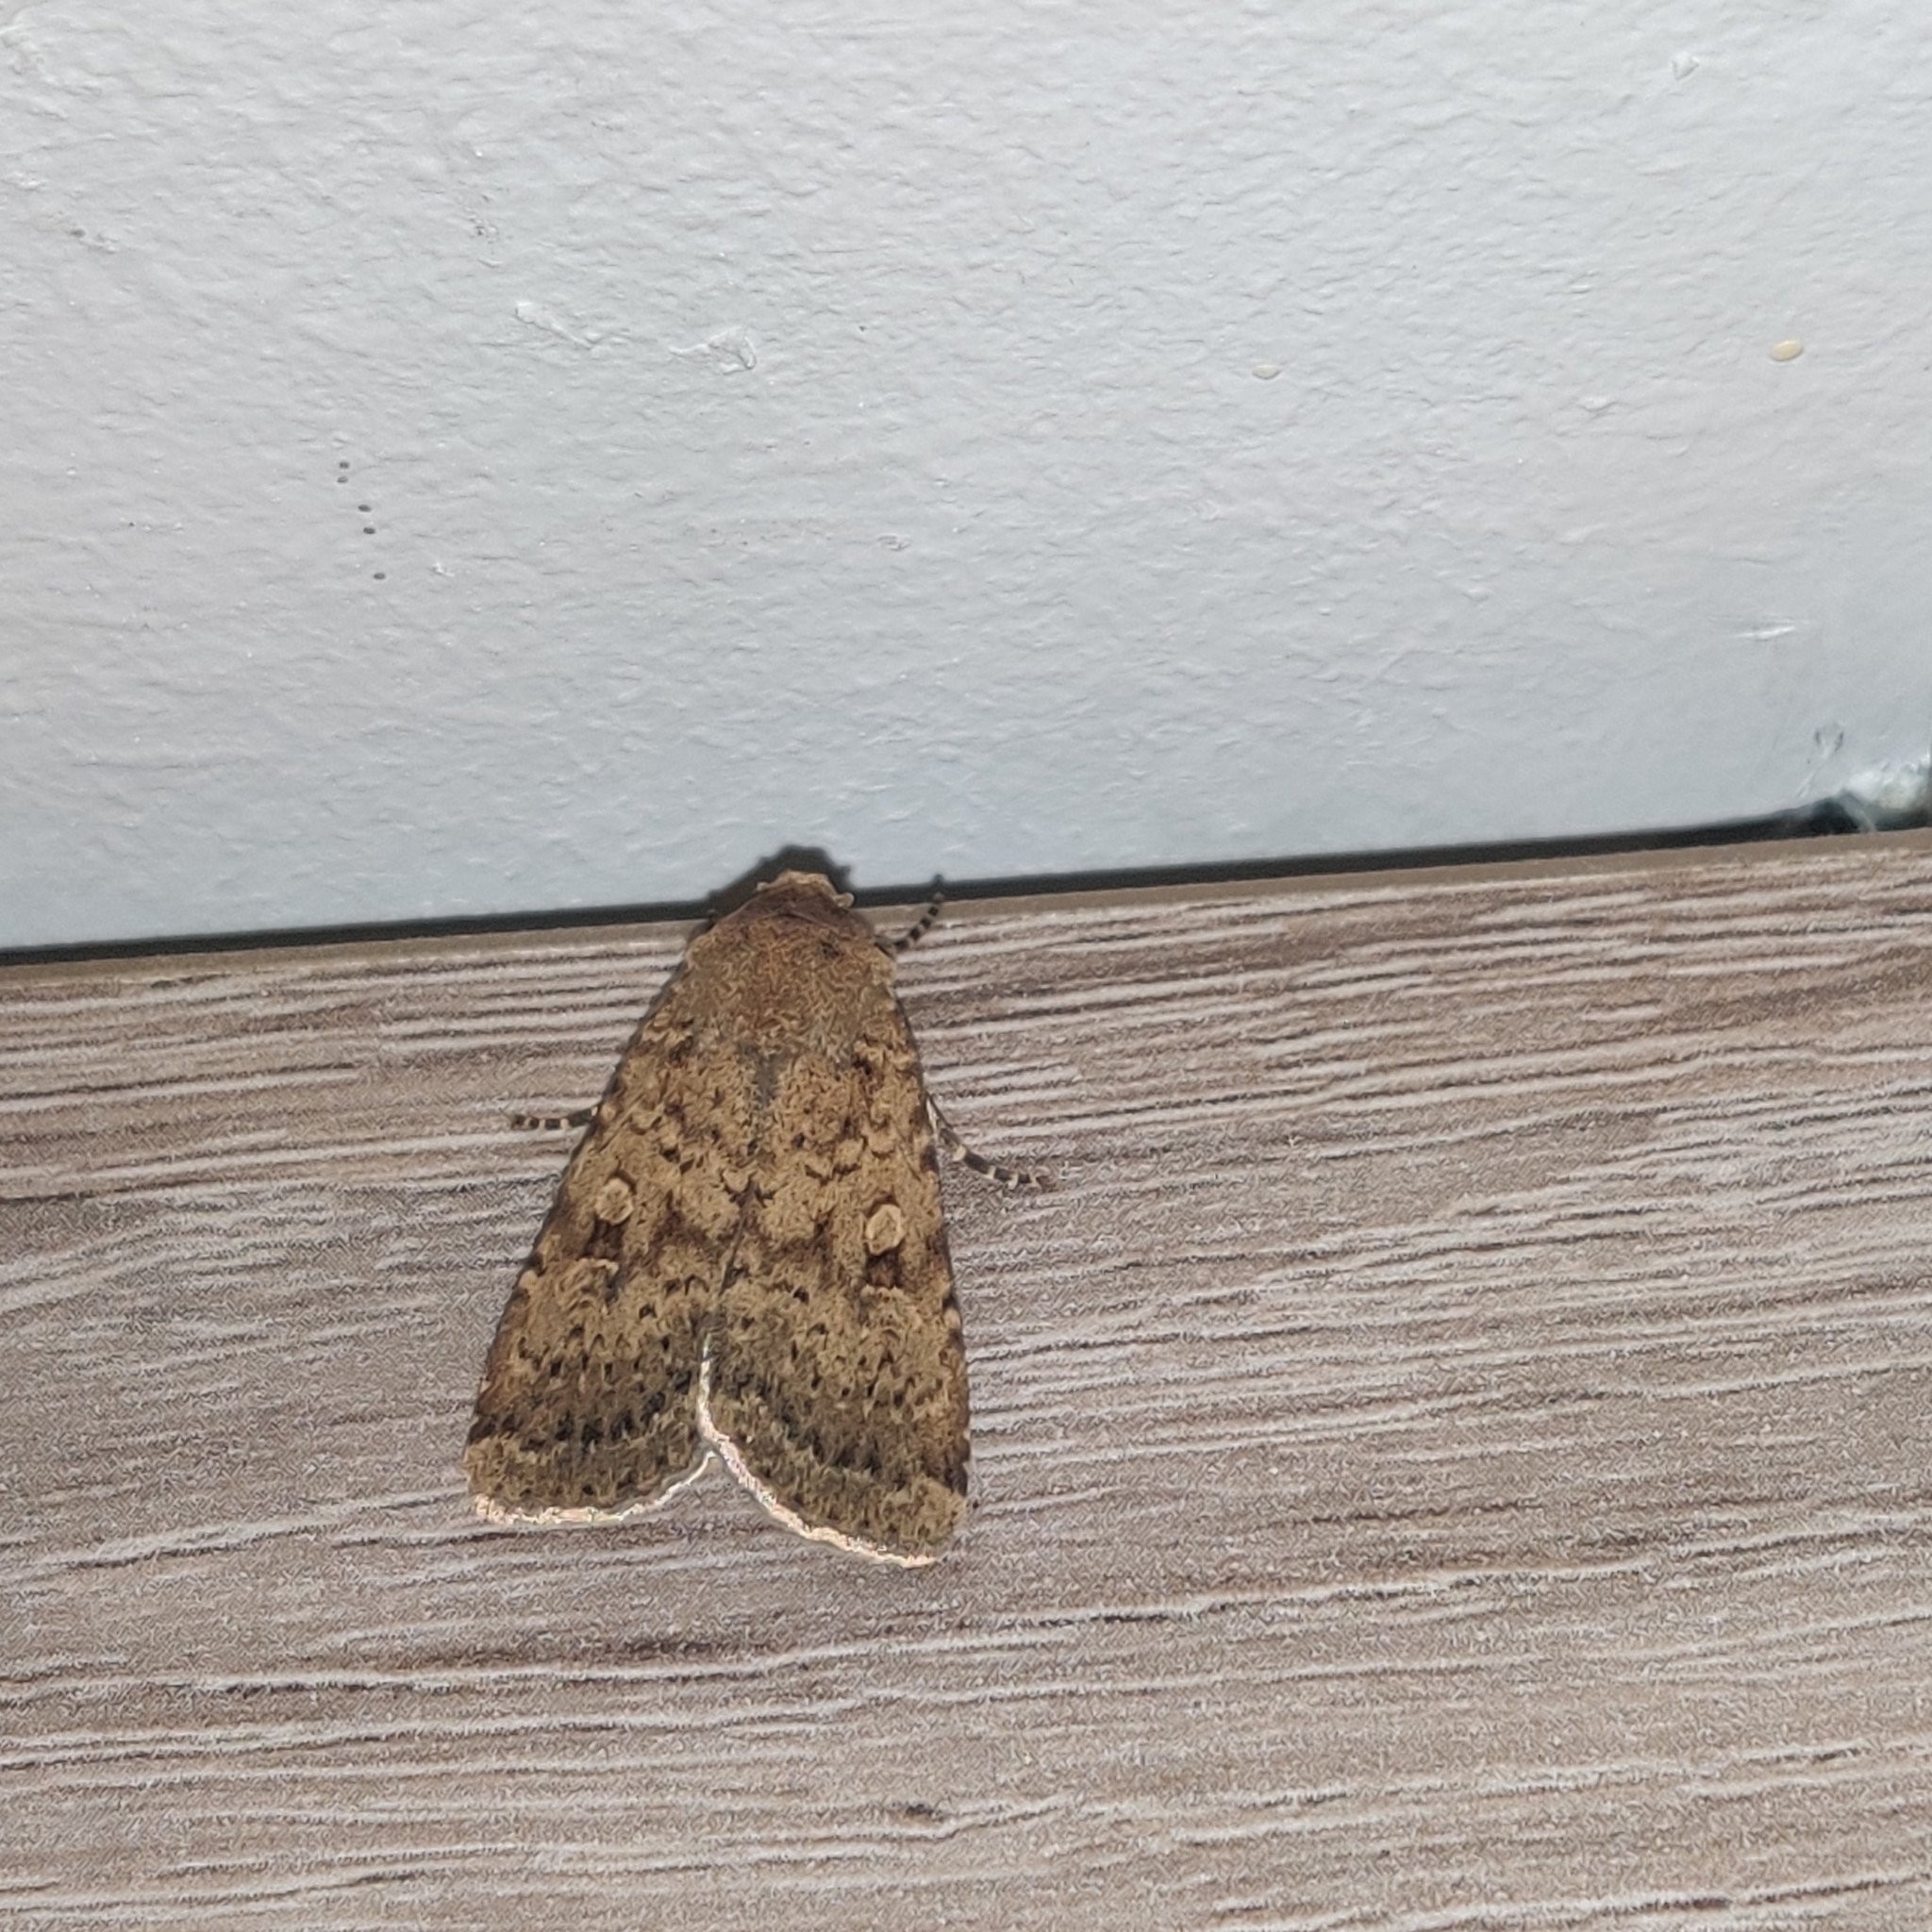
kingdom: Animalia
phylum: Arthropoda
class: Insecta
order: Lepidoptera
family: Noctuidae
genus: Rhyacia
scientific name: Rhyacia simulans
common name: Dotted rustic
